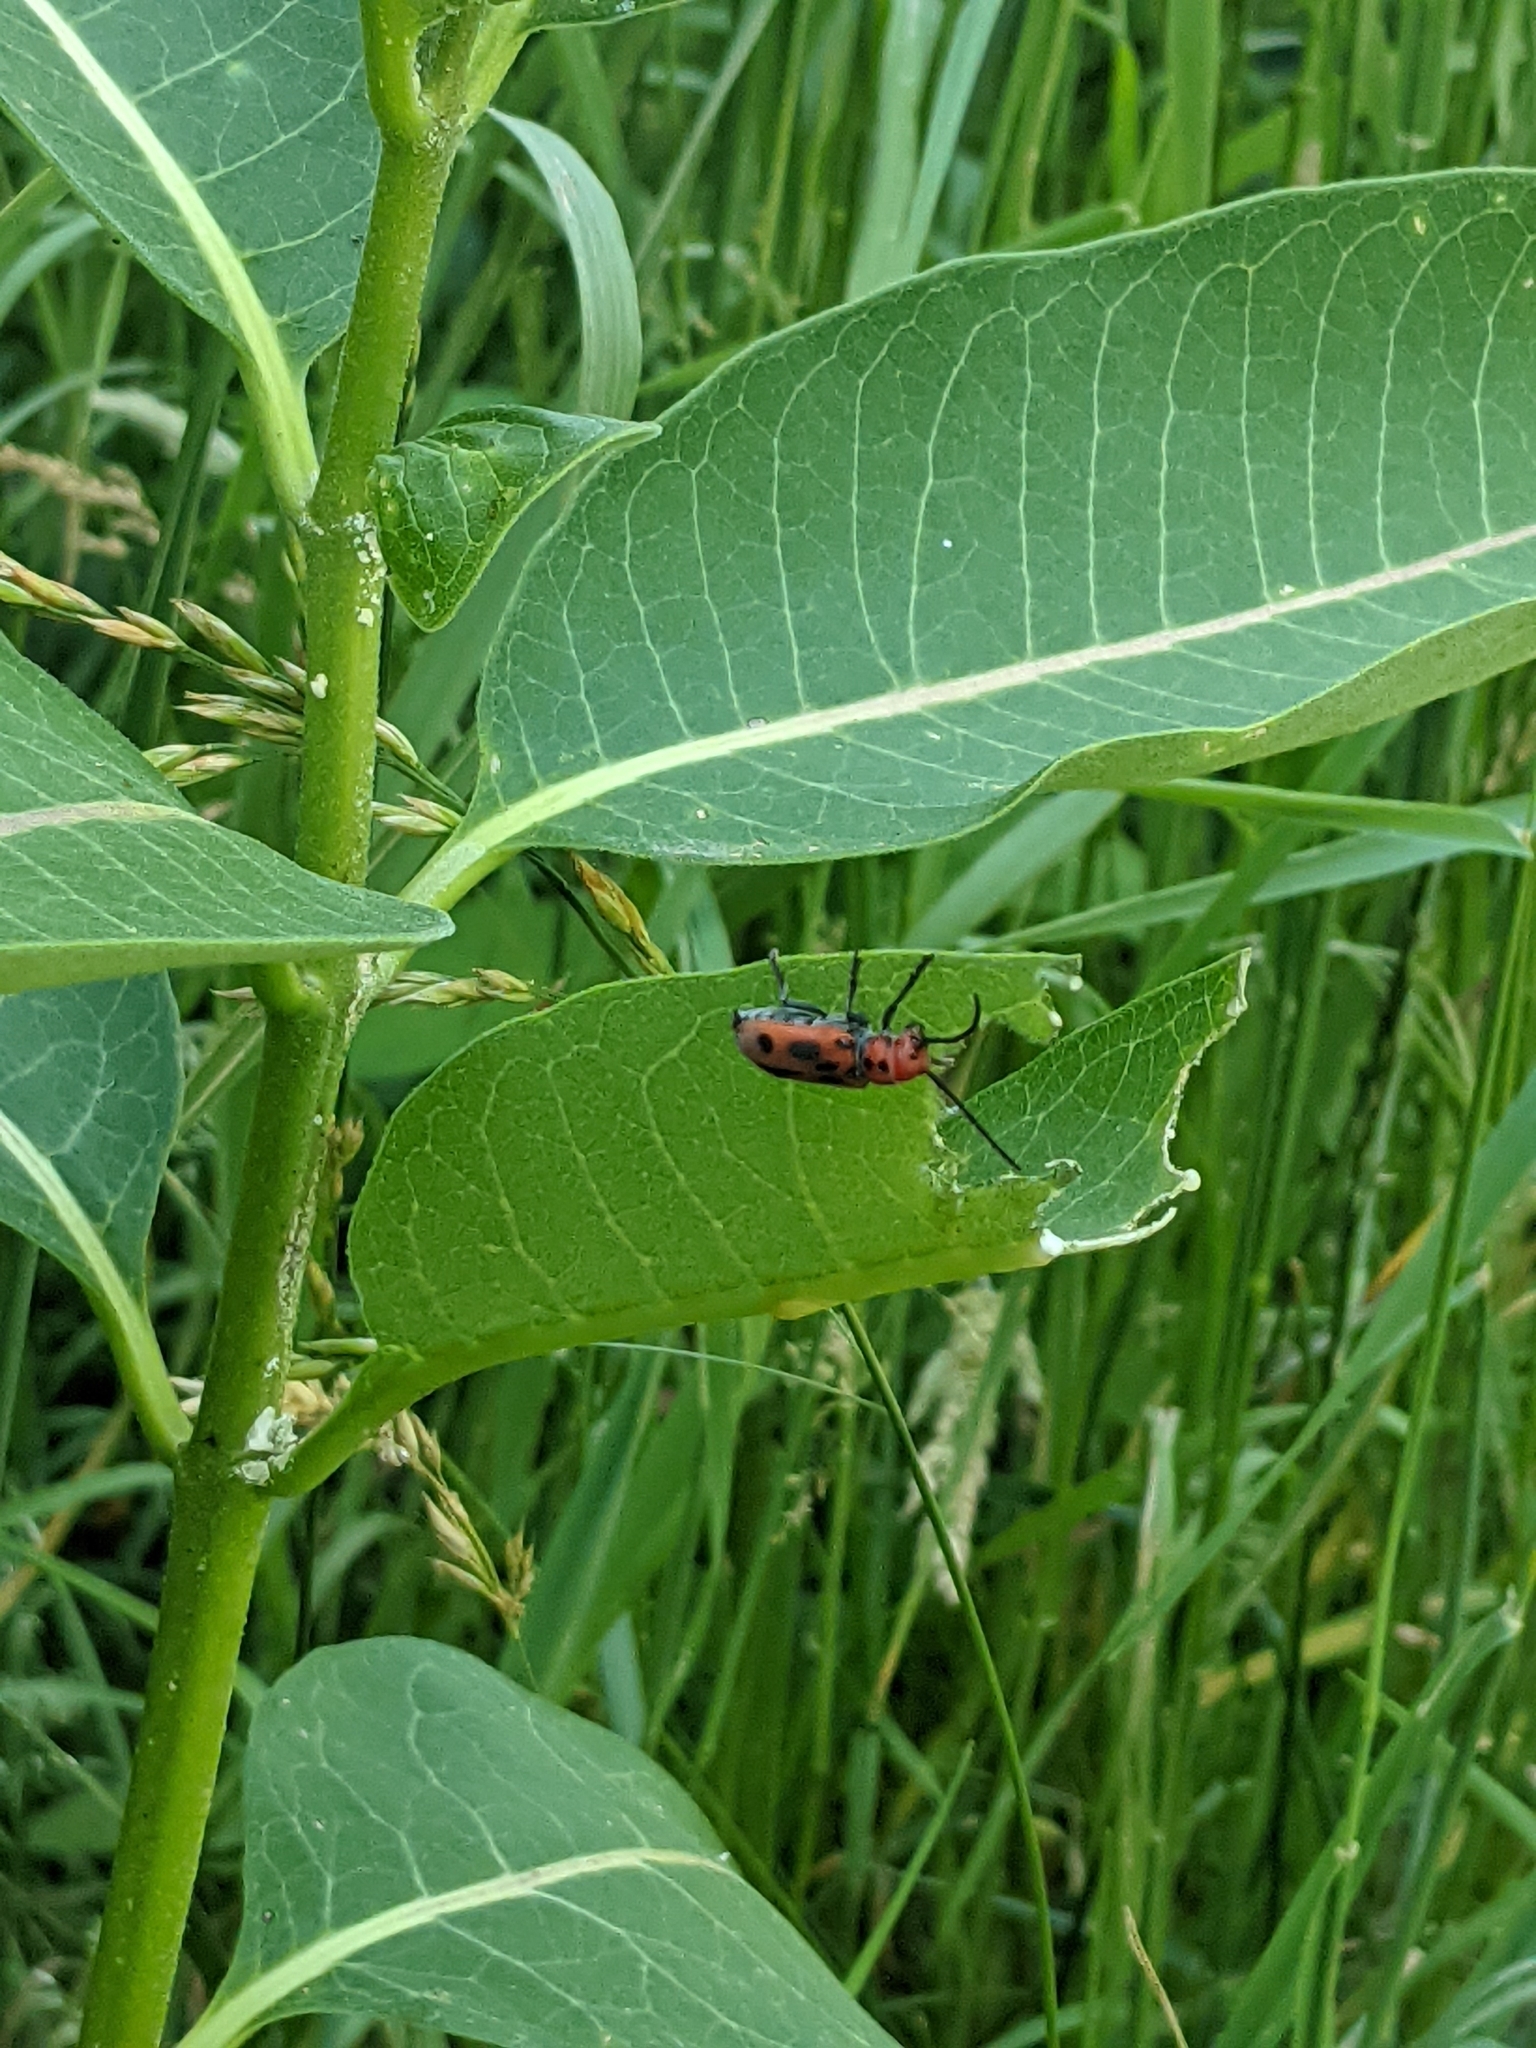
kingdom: Animalia
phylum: Arthropoda
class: Insecta
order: Coleoptera
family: Cerambycidae
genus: Tetraopes
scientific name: Tetraopes tetrophthalmus
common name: Red milkweed beetle
